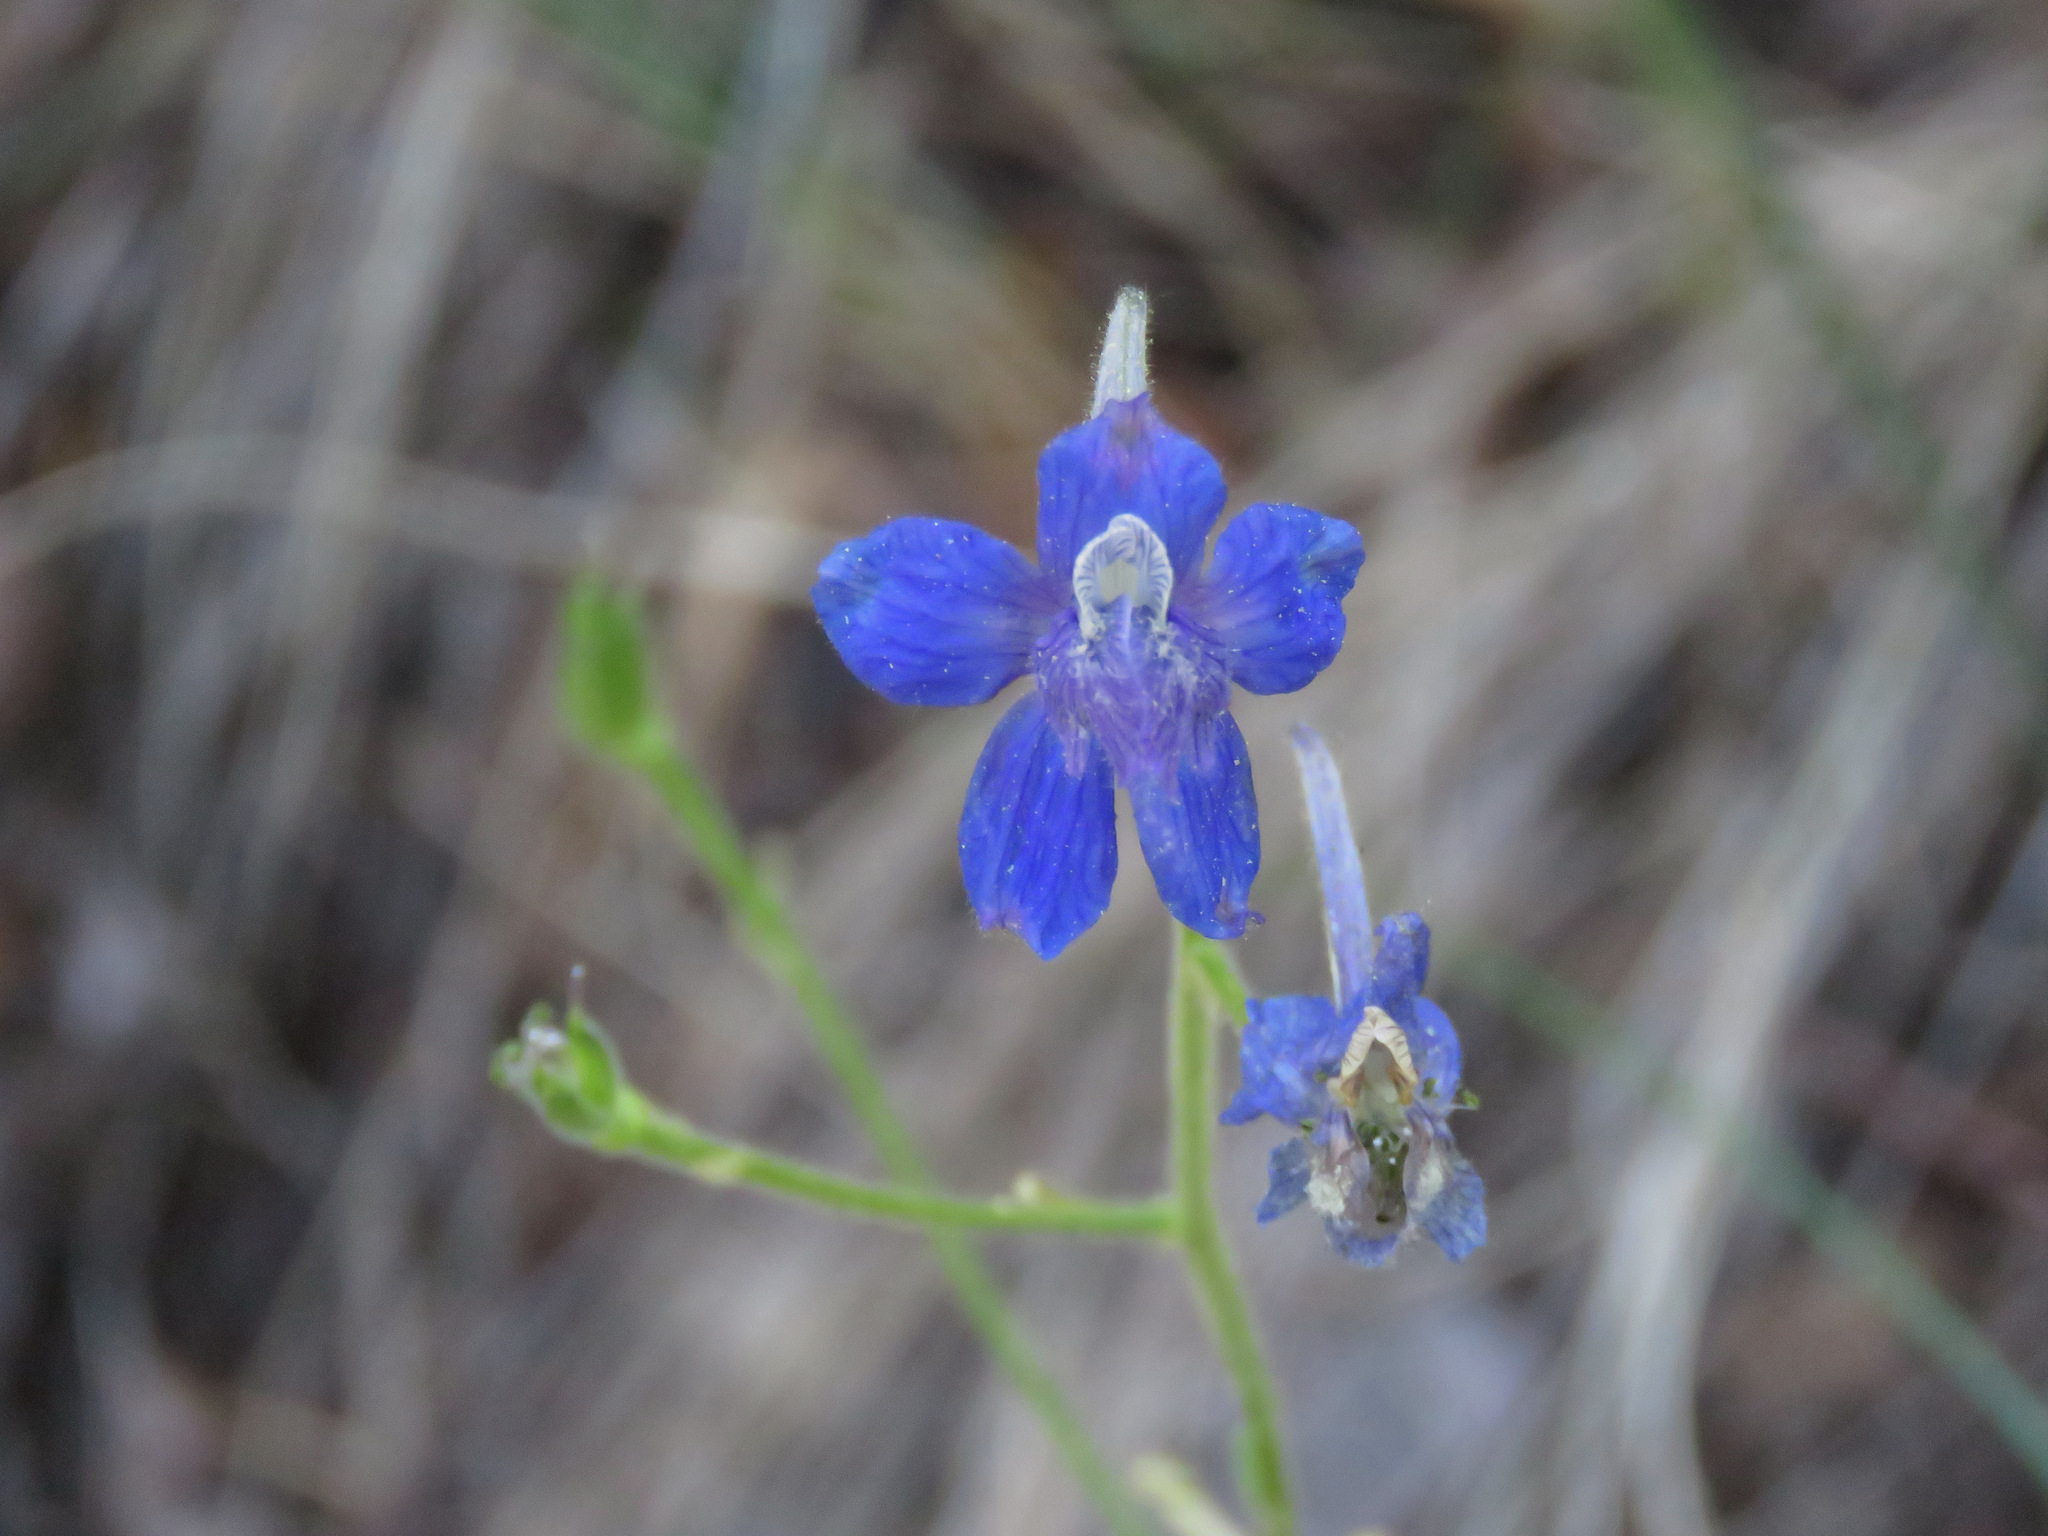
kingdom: Plantae
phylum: Tracheophyta
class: Magnoliopsida
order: Ranunculales
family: Ranunculaceae
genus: Delphinium
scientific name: Delphinium nuttallianum
